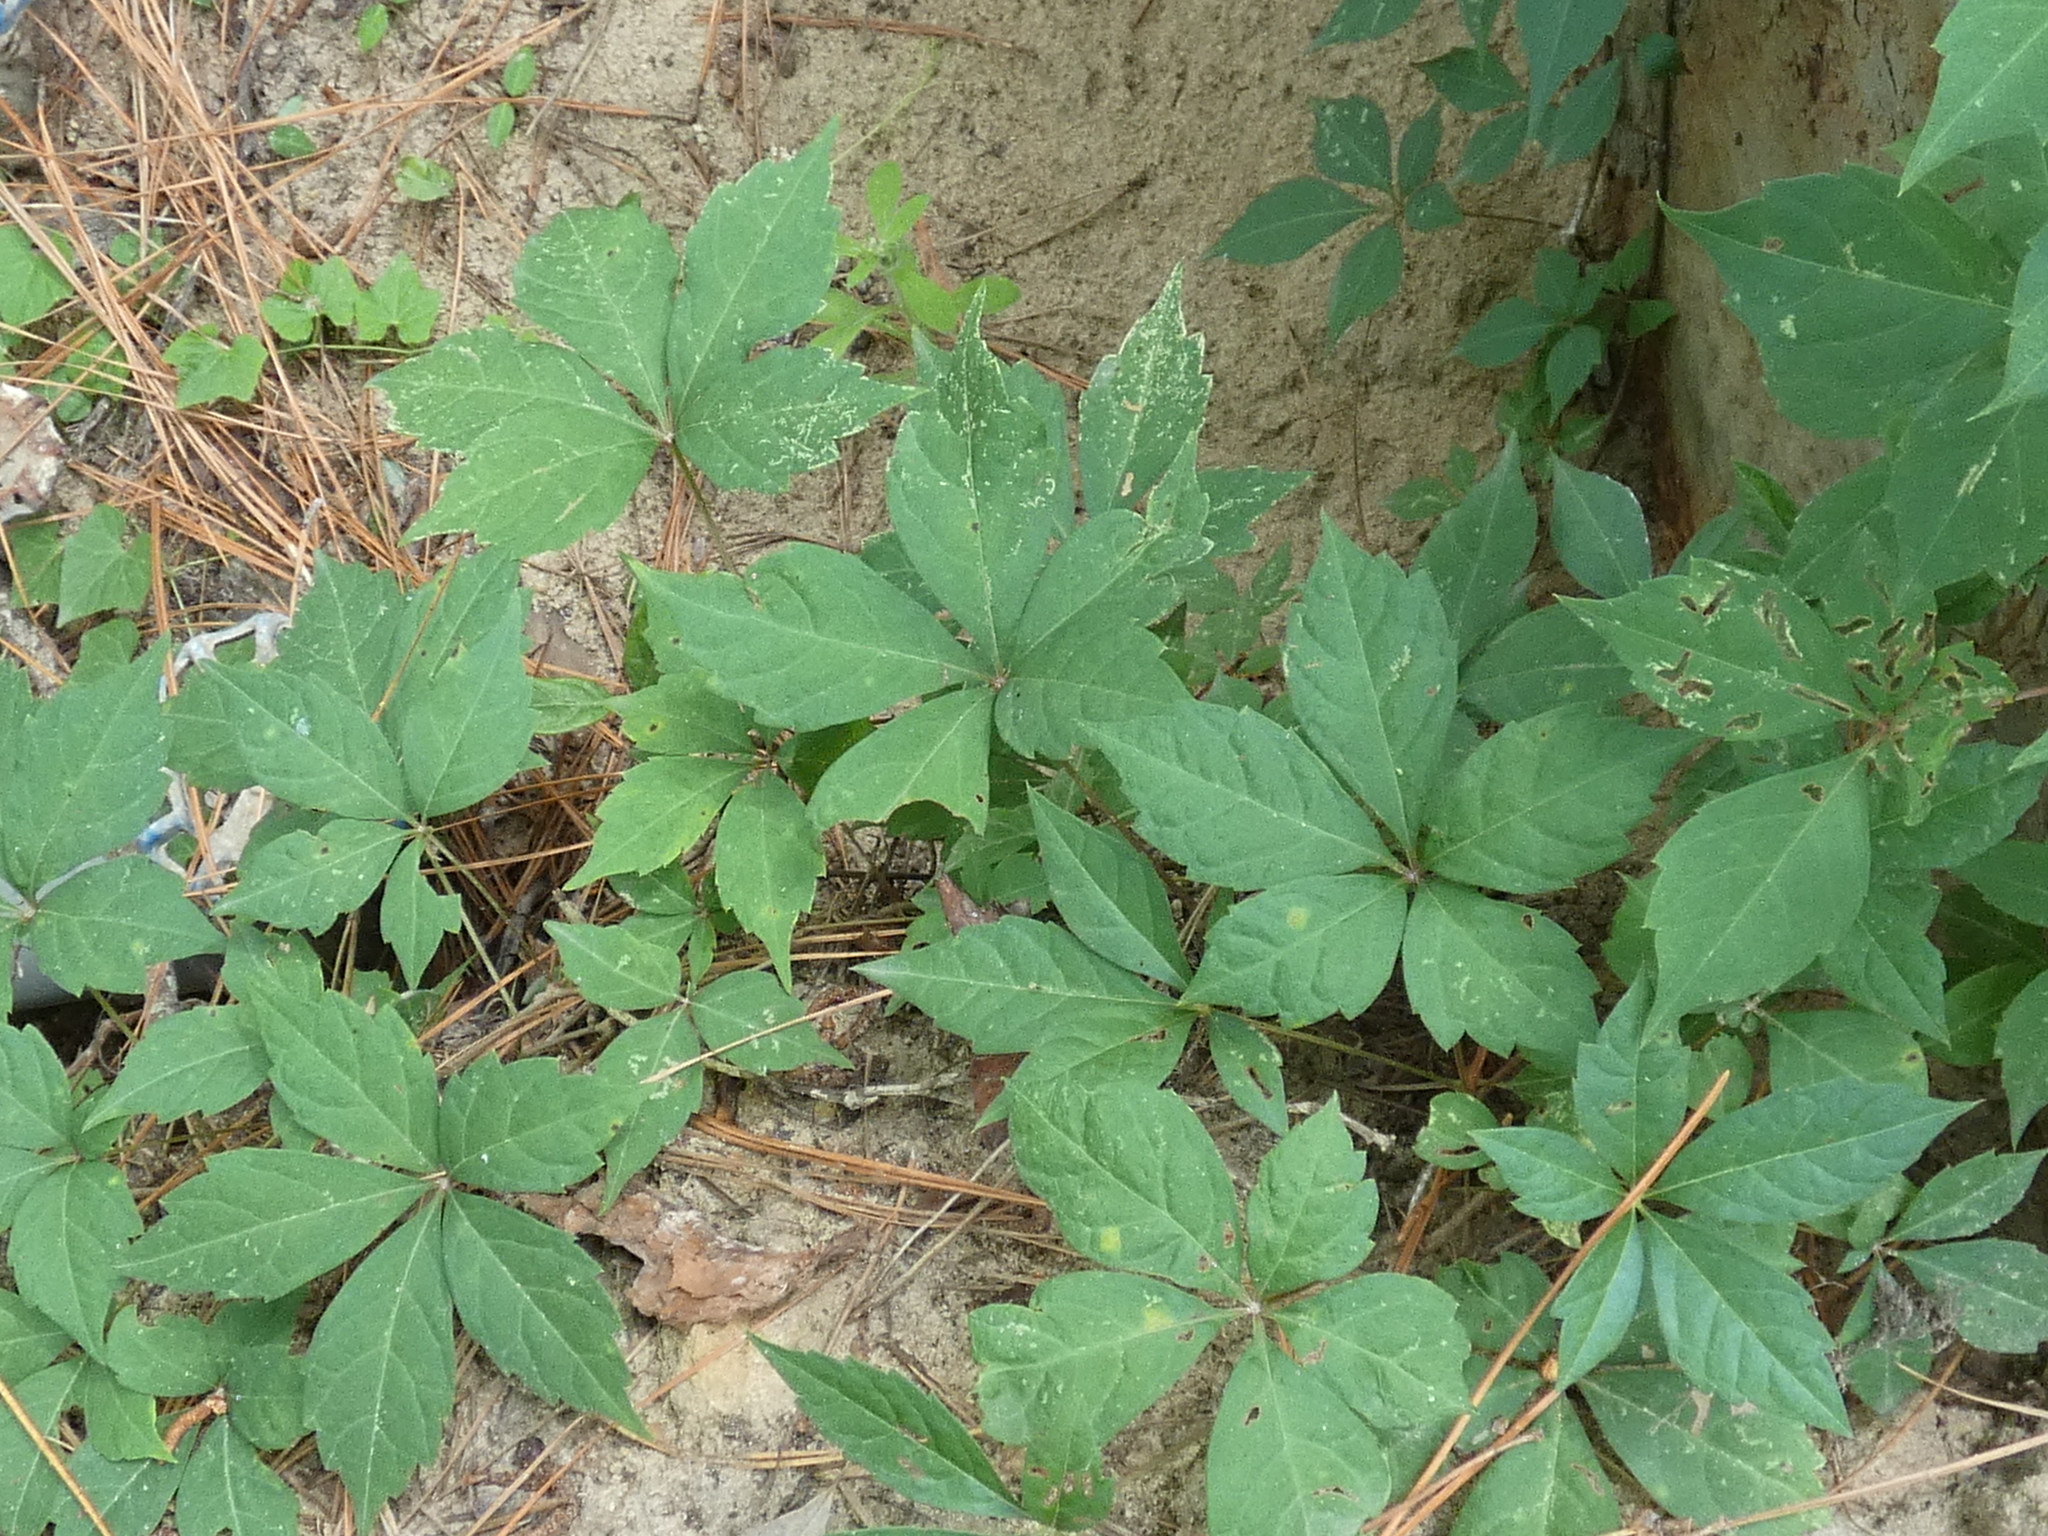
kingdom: Plantae
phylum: Tracheophyta
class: Magnoliopsida
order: Vitales
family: Vitaceae
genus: Parthenocissus
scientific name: Parthenocissus quinquefolia
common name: Virginia-creeper
